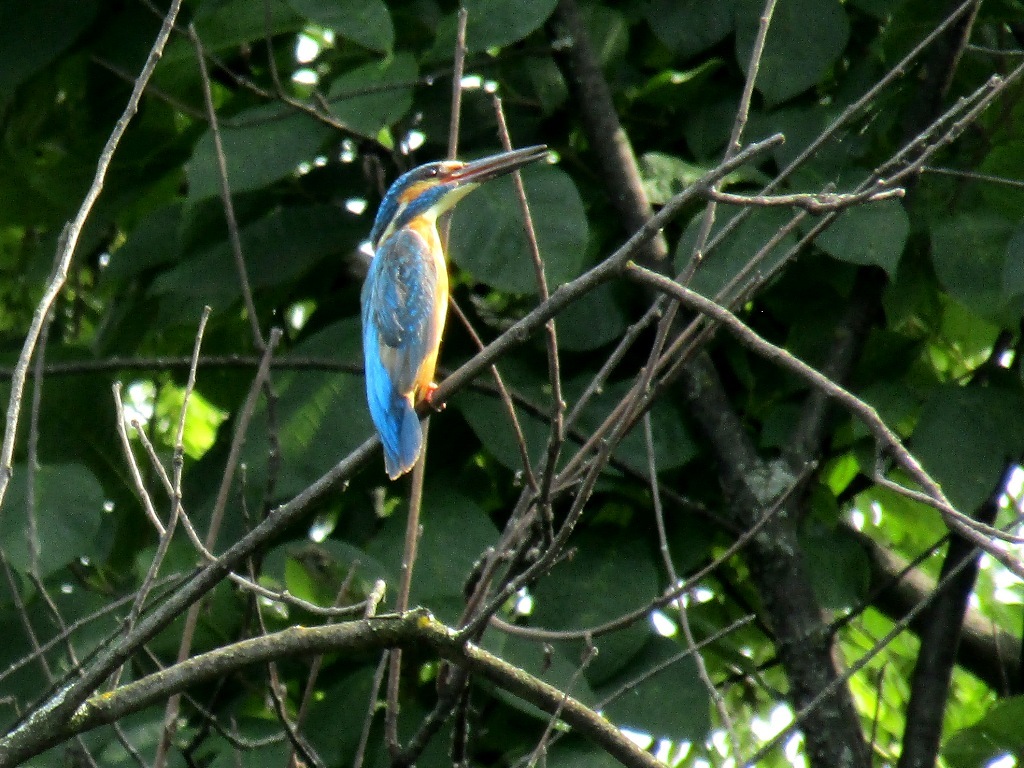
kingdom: Animalia
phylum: Chordata
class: Aves
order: Coraciiformes
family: Alcedinidae
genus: Alcedo
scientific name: Alcedo atthis
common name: Common kingfisher
